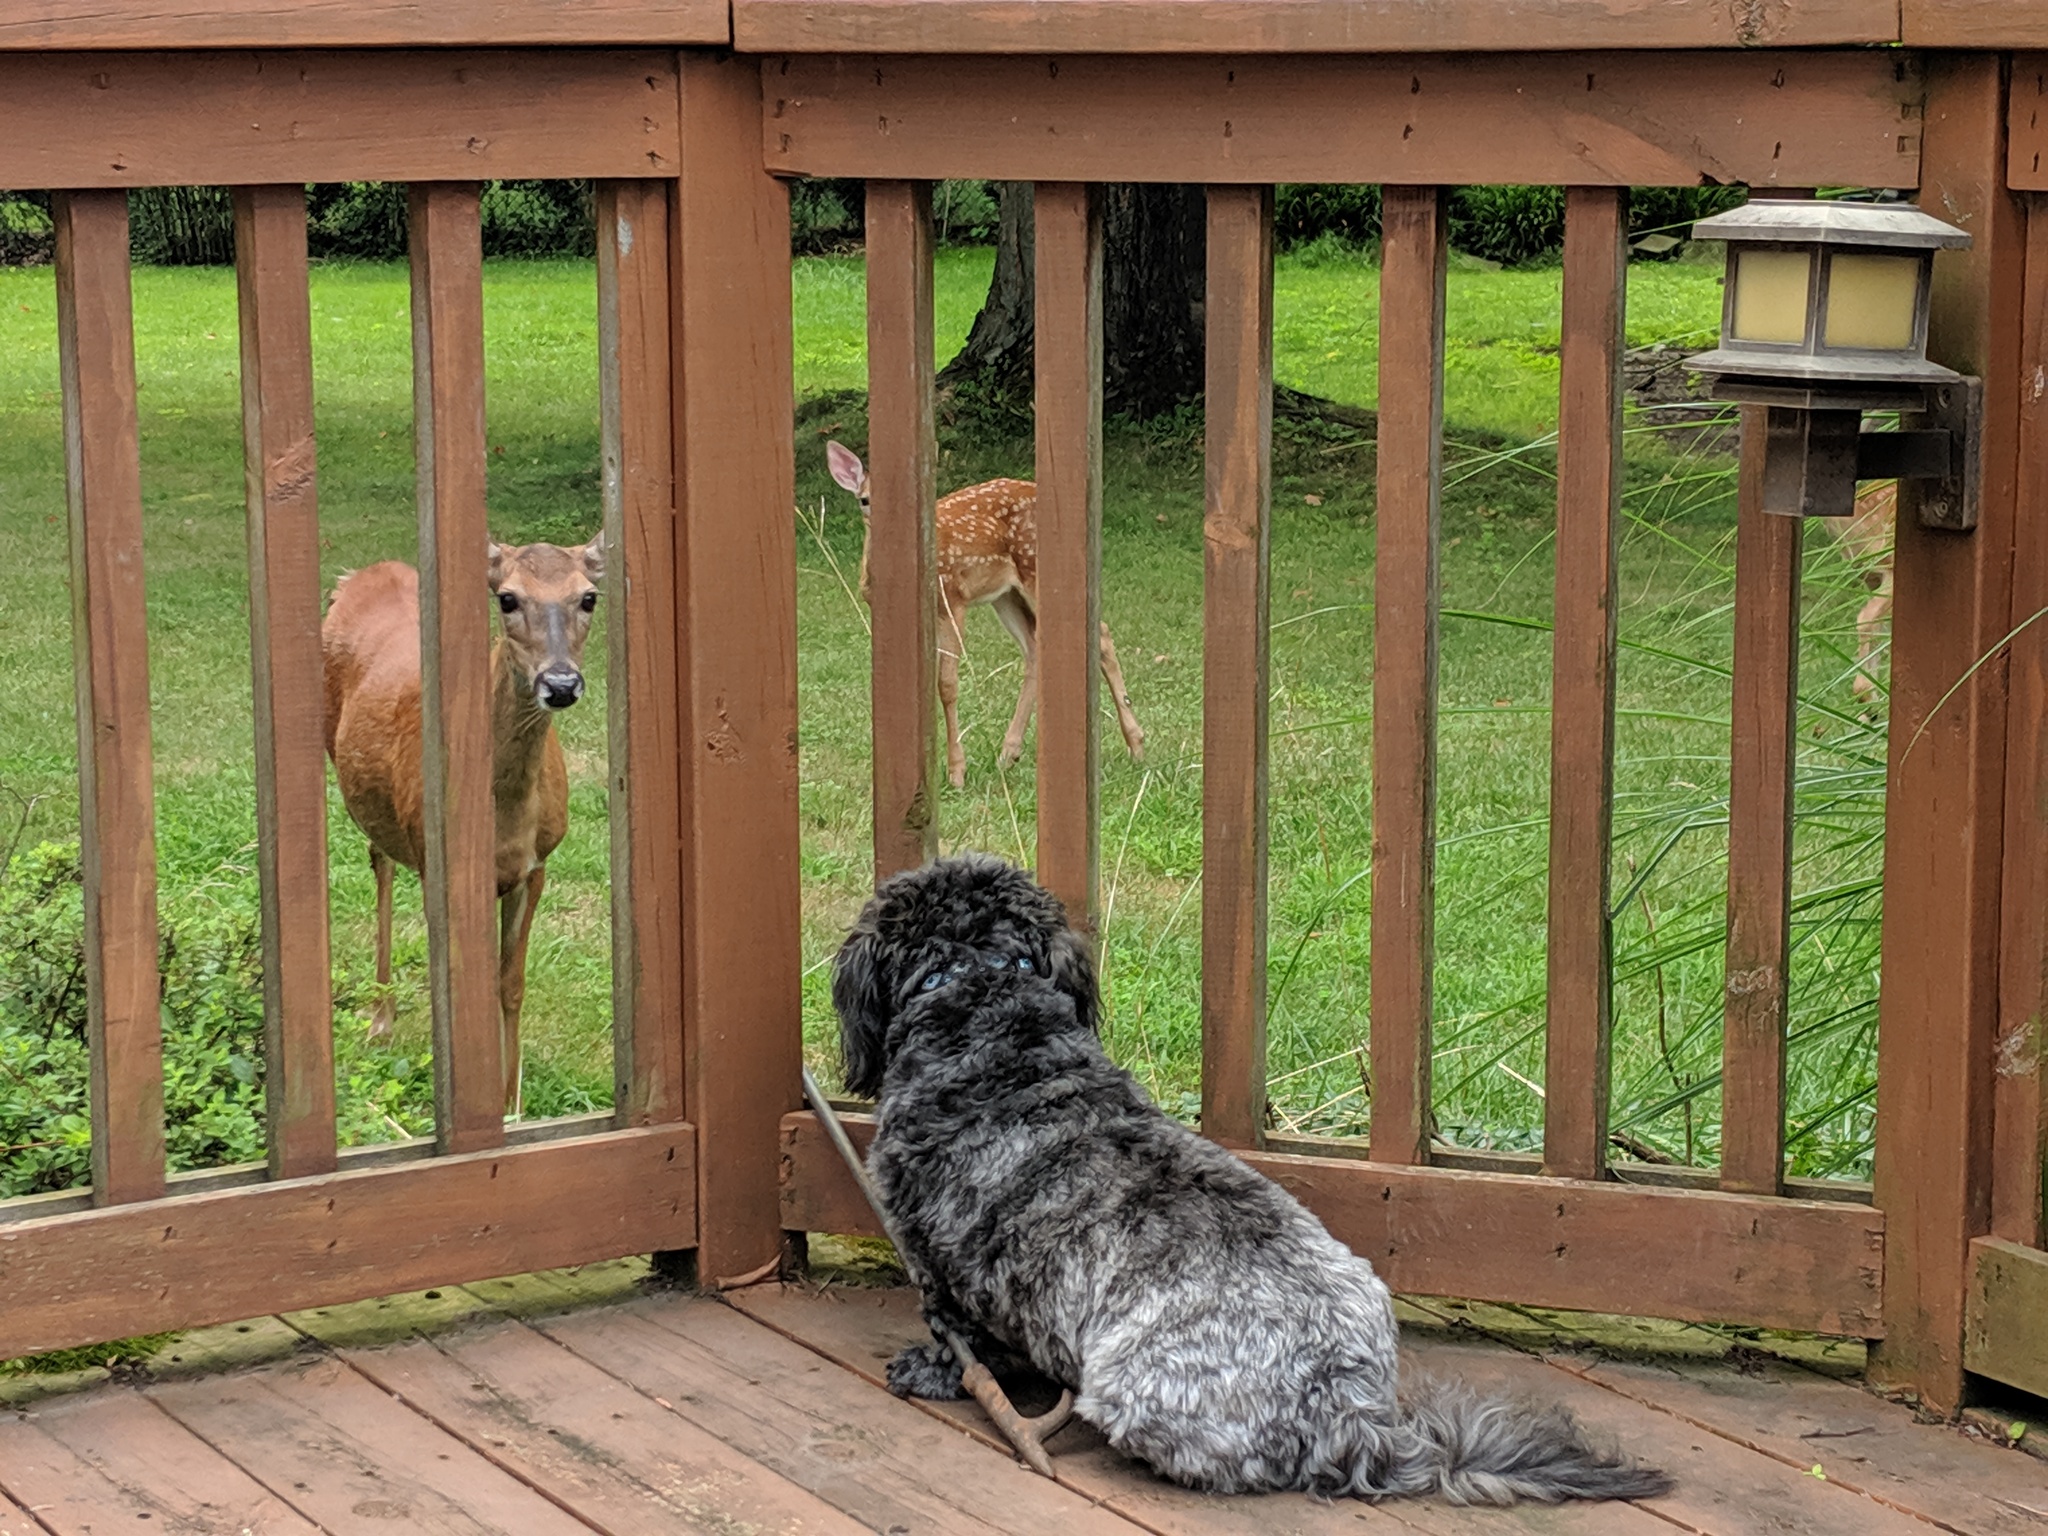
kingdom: Animalia
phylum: Chordata
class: Mammalia
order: Artiodactyla
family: Cervidae
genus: Odocoileus
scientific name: Odocoileus virginianus
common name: White-tailed deer
